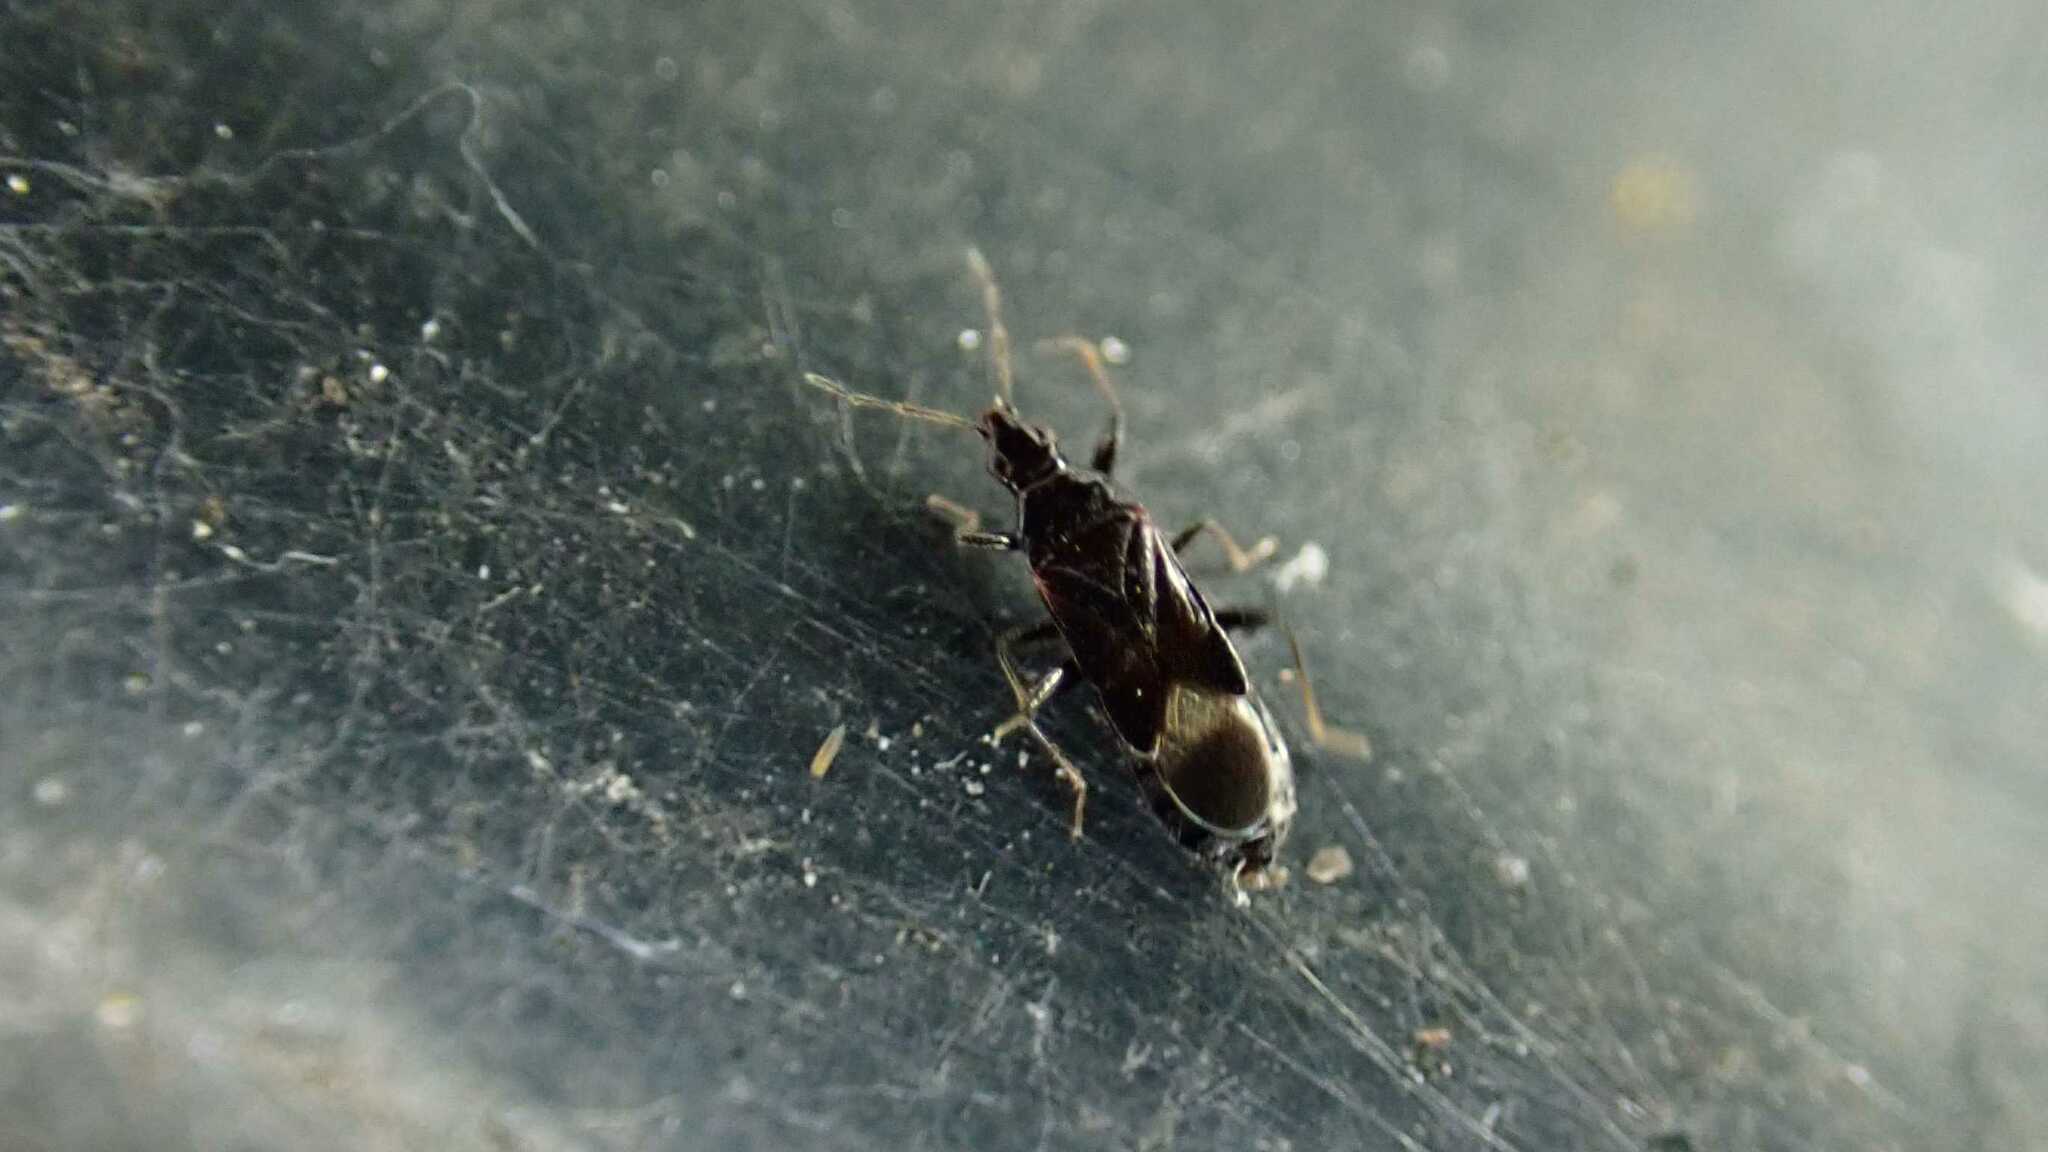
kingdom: Animalia
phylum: Arthropoda
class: Insecta
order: Hemiptera
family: Anthocoridae
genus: Dufouriellus
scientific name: Dufouriellus ater
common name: Minute pirate bug
